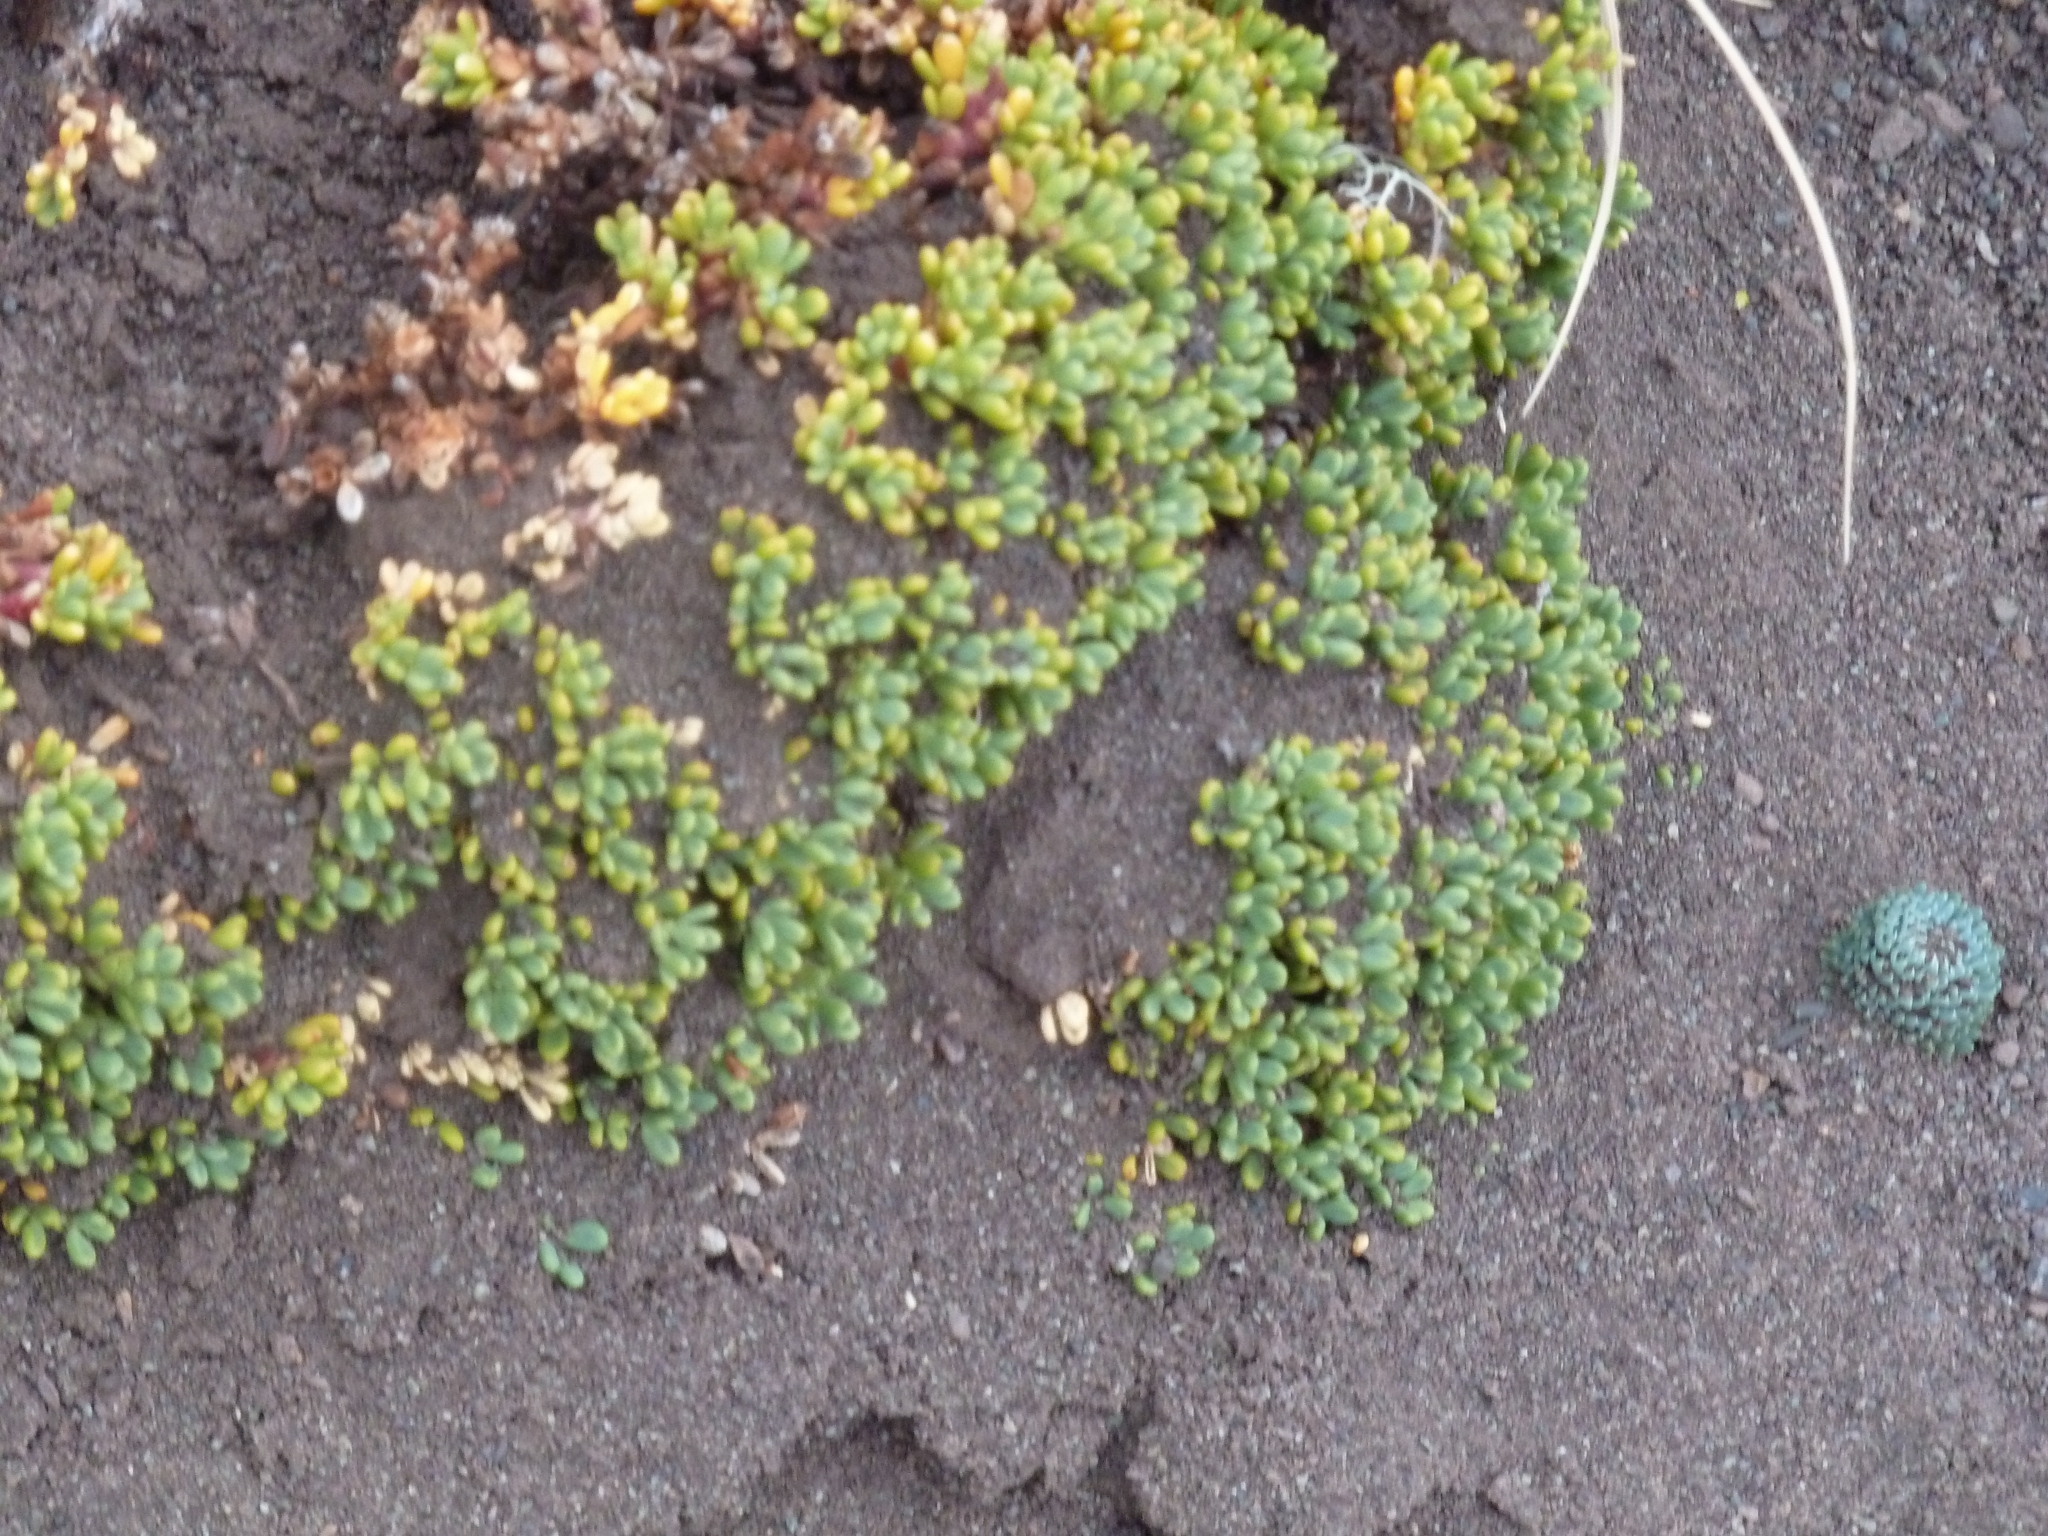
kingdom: Plantae
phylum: Tracheophyta
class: Magnoliopsida
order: Fabales
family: Fabaceae
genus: Adesmia
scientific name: Adesmia salicornioides
